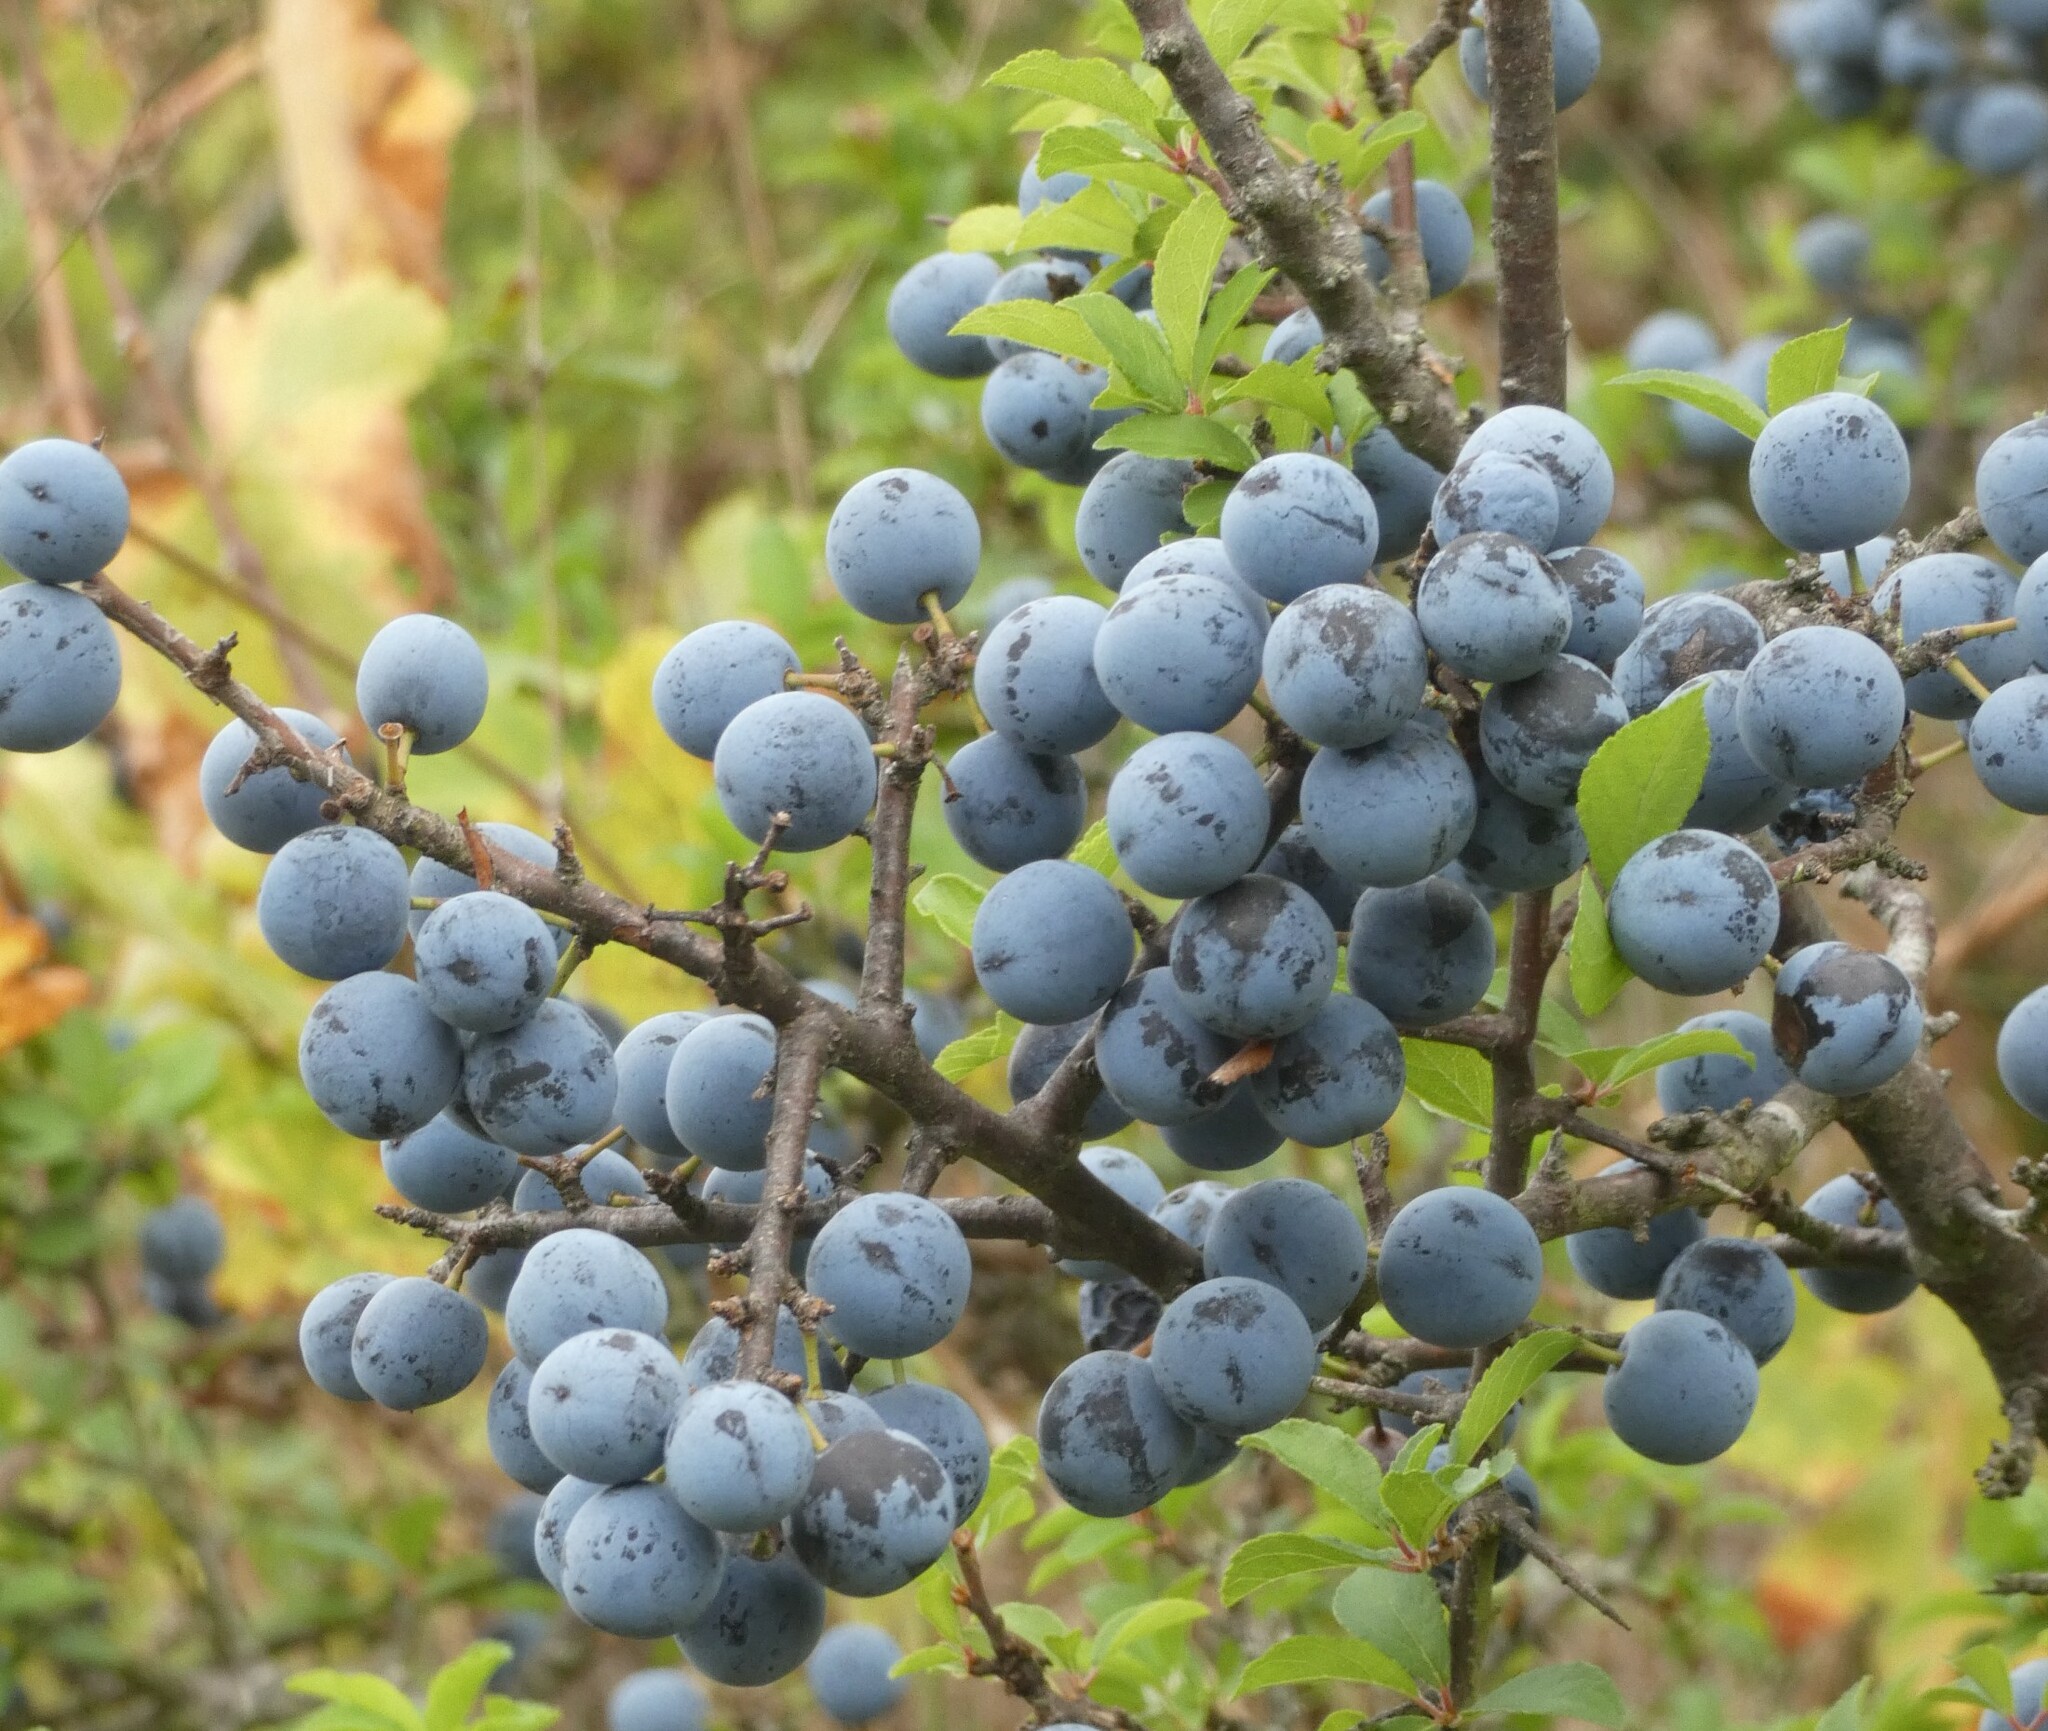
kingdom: Plantae
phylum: Tracheophyta
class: Magnoliopsida
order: Rosales
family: Rosaceae
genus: Prunus
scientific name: Prunus spinosa
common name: Blackthorn
